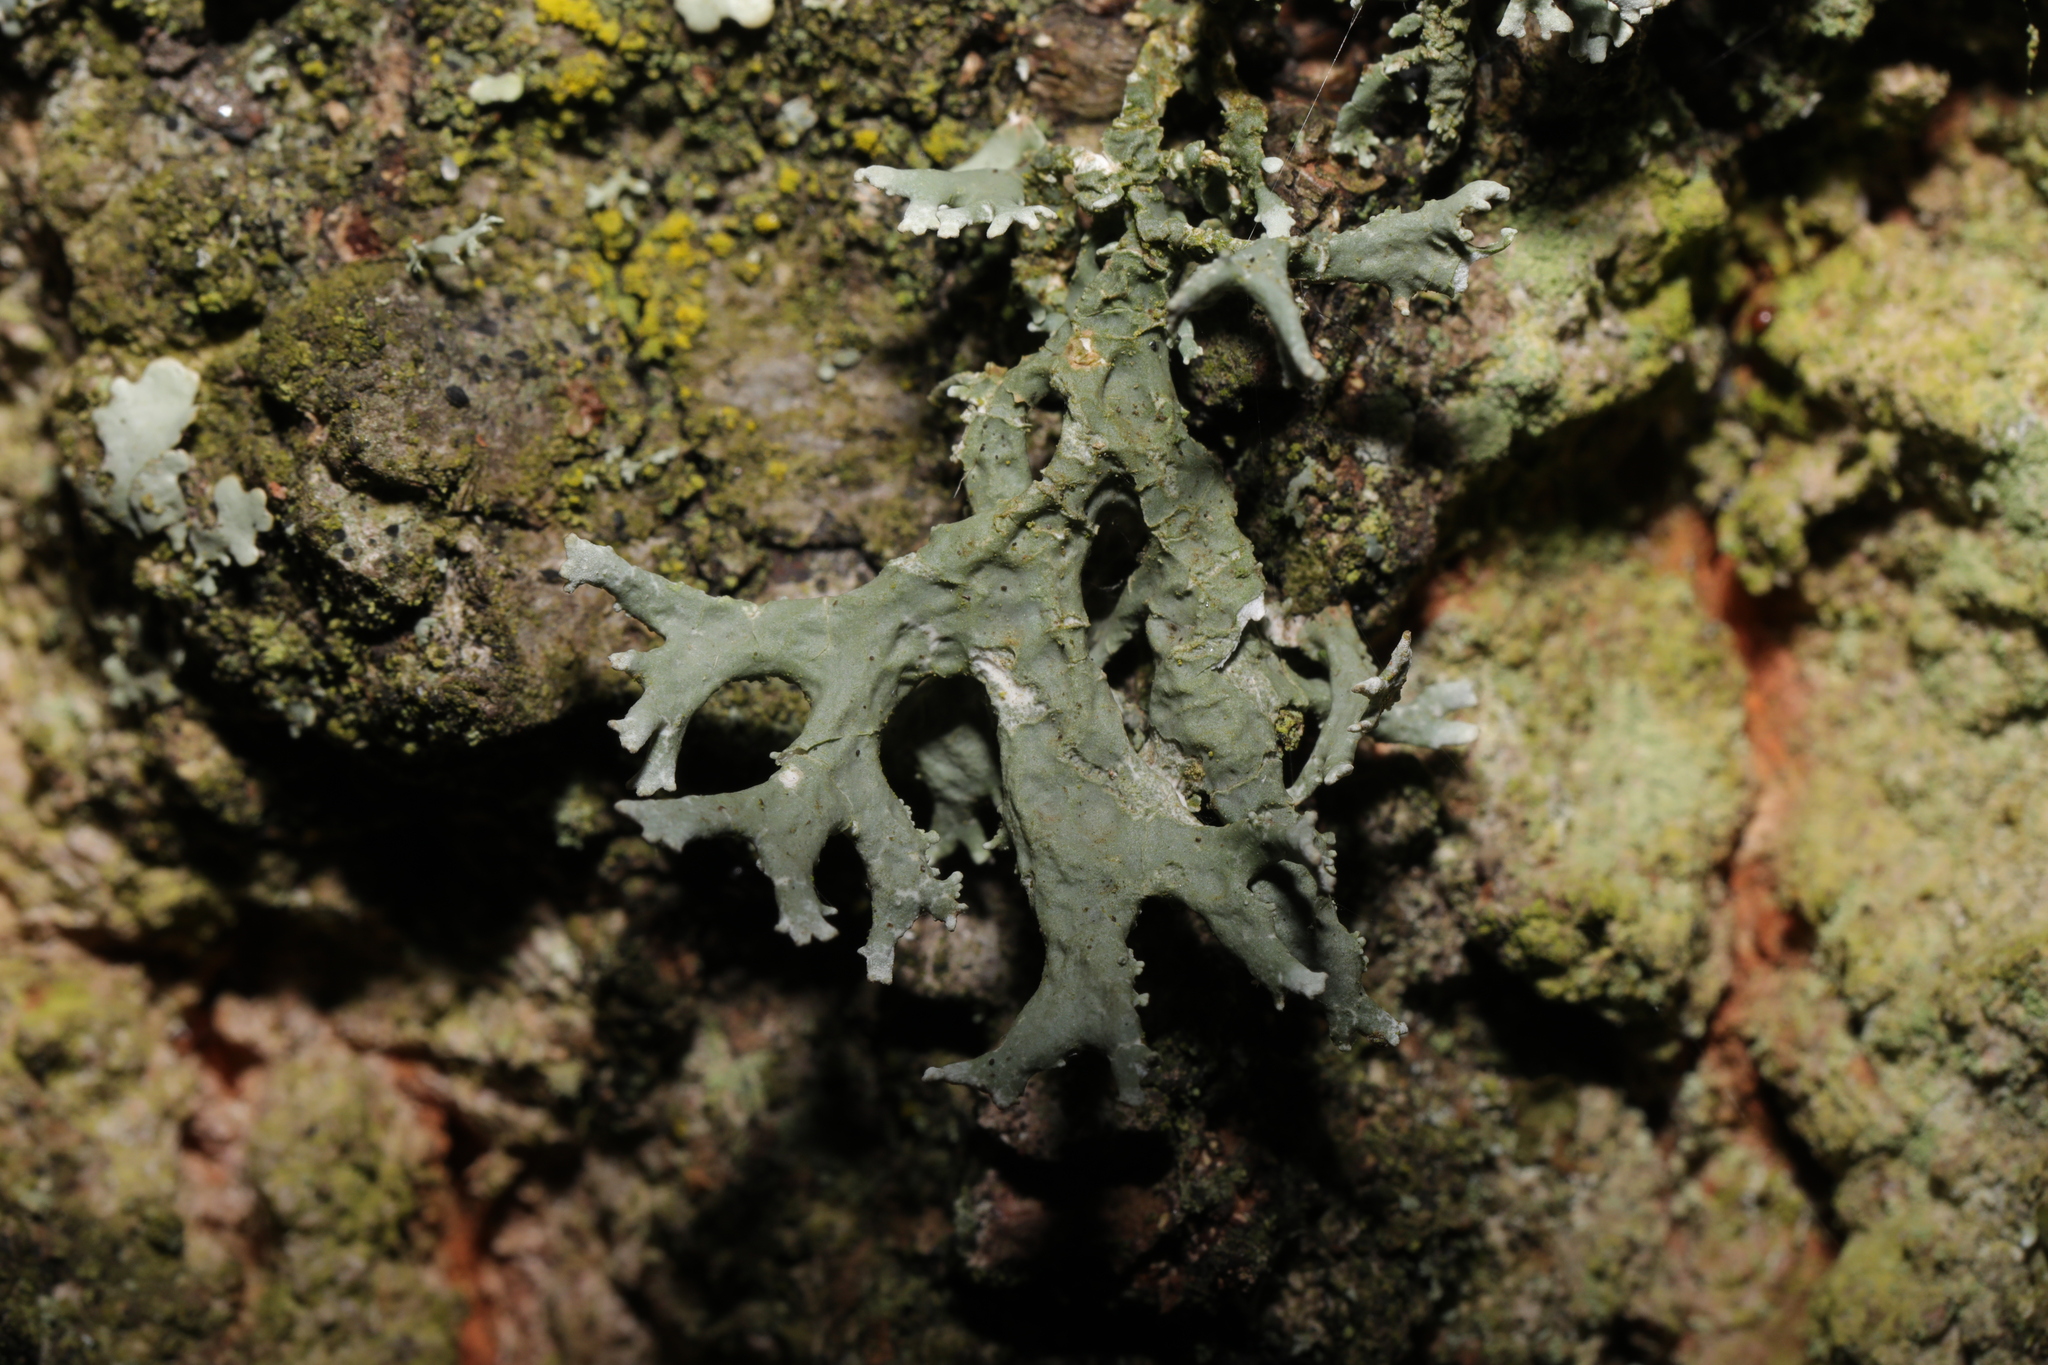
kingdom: Fungi
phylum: Ascomycota
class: Lecanoromycetes
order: Lecanorales
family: Parmeliaceae
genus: Evernia
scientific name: Evernia prunastri
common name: Oak moss
